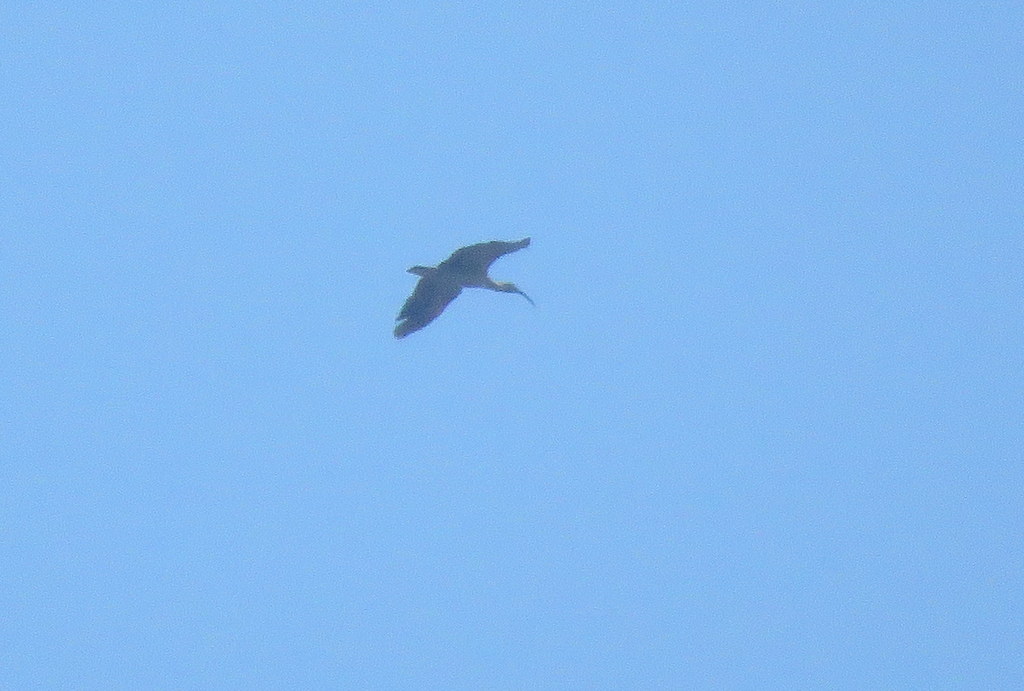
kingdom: Animalia
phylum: Chordata
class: Aves
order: Pelecaniformes
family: Threskiornithidae
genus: Theristicus
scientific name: Theristicus caerulescens
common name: Plumbeous ibis
